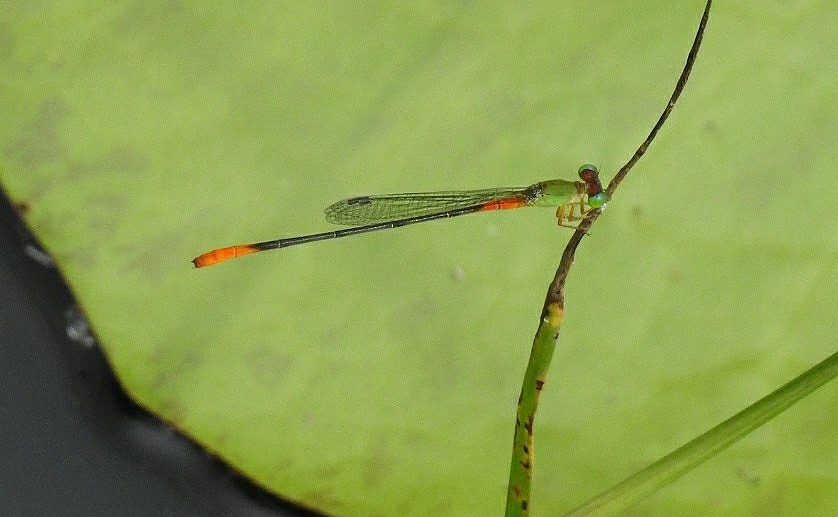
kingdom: Animalia
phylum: Arthropoda
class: Insecta
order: Odonata
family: Coenagrionidae
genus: Ceriagrion
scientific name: Ceriagrion cerinorubellum
